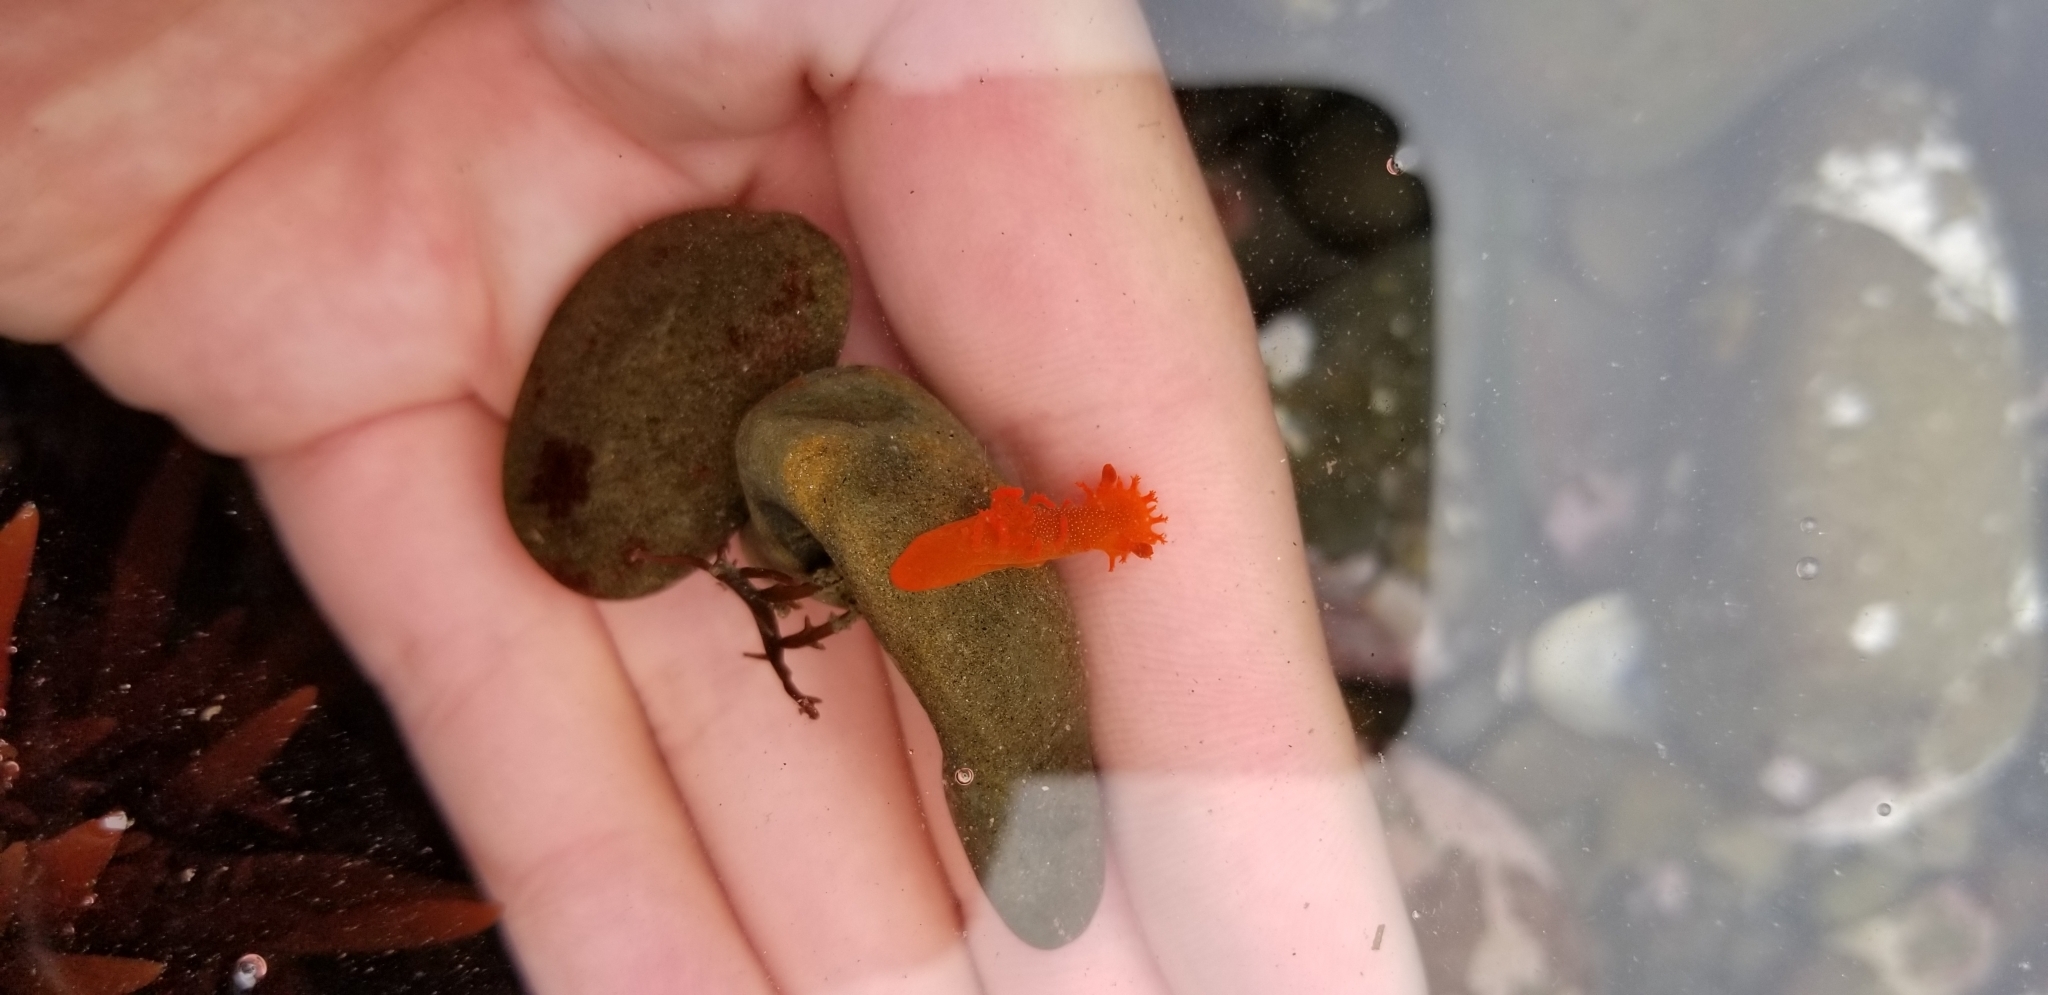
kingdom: Animalia
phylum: Mollusca
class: Gastropoda
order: Nudibranchia
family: Polyceridae
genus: Triopha
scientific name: Triopha maculata
